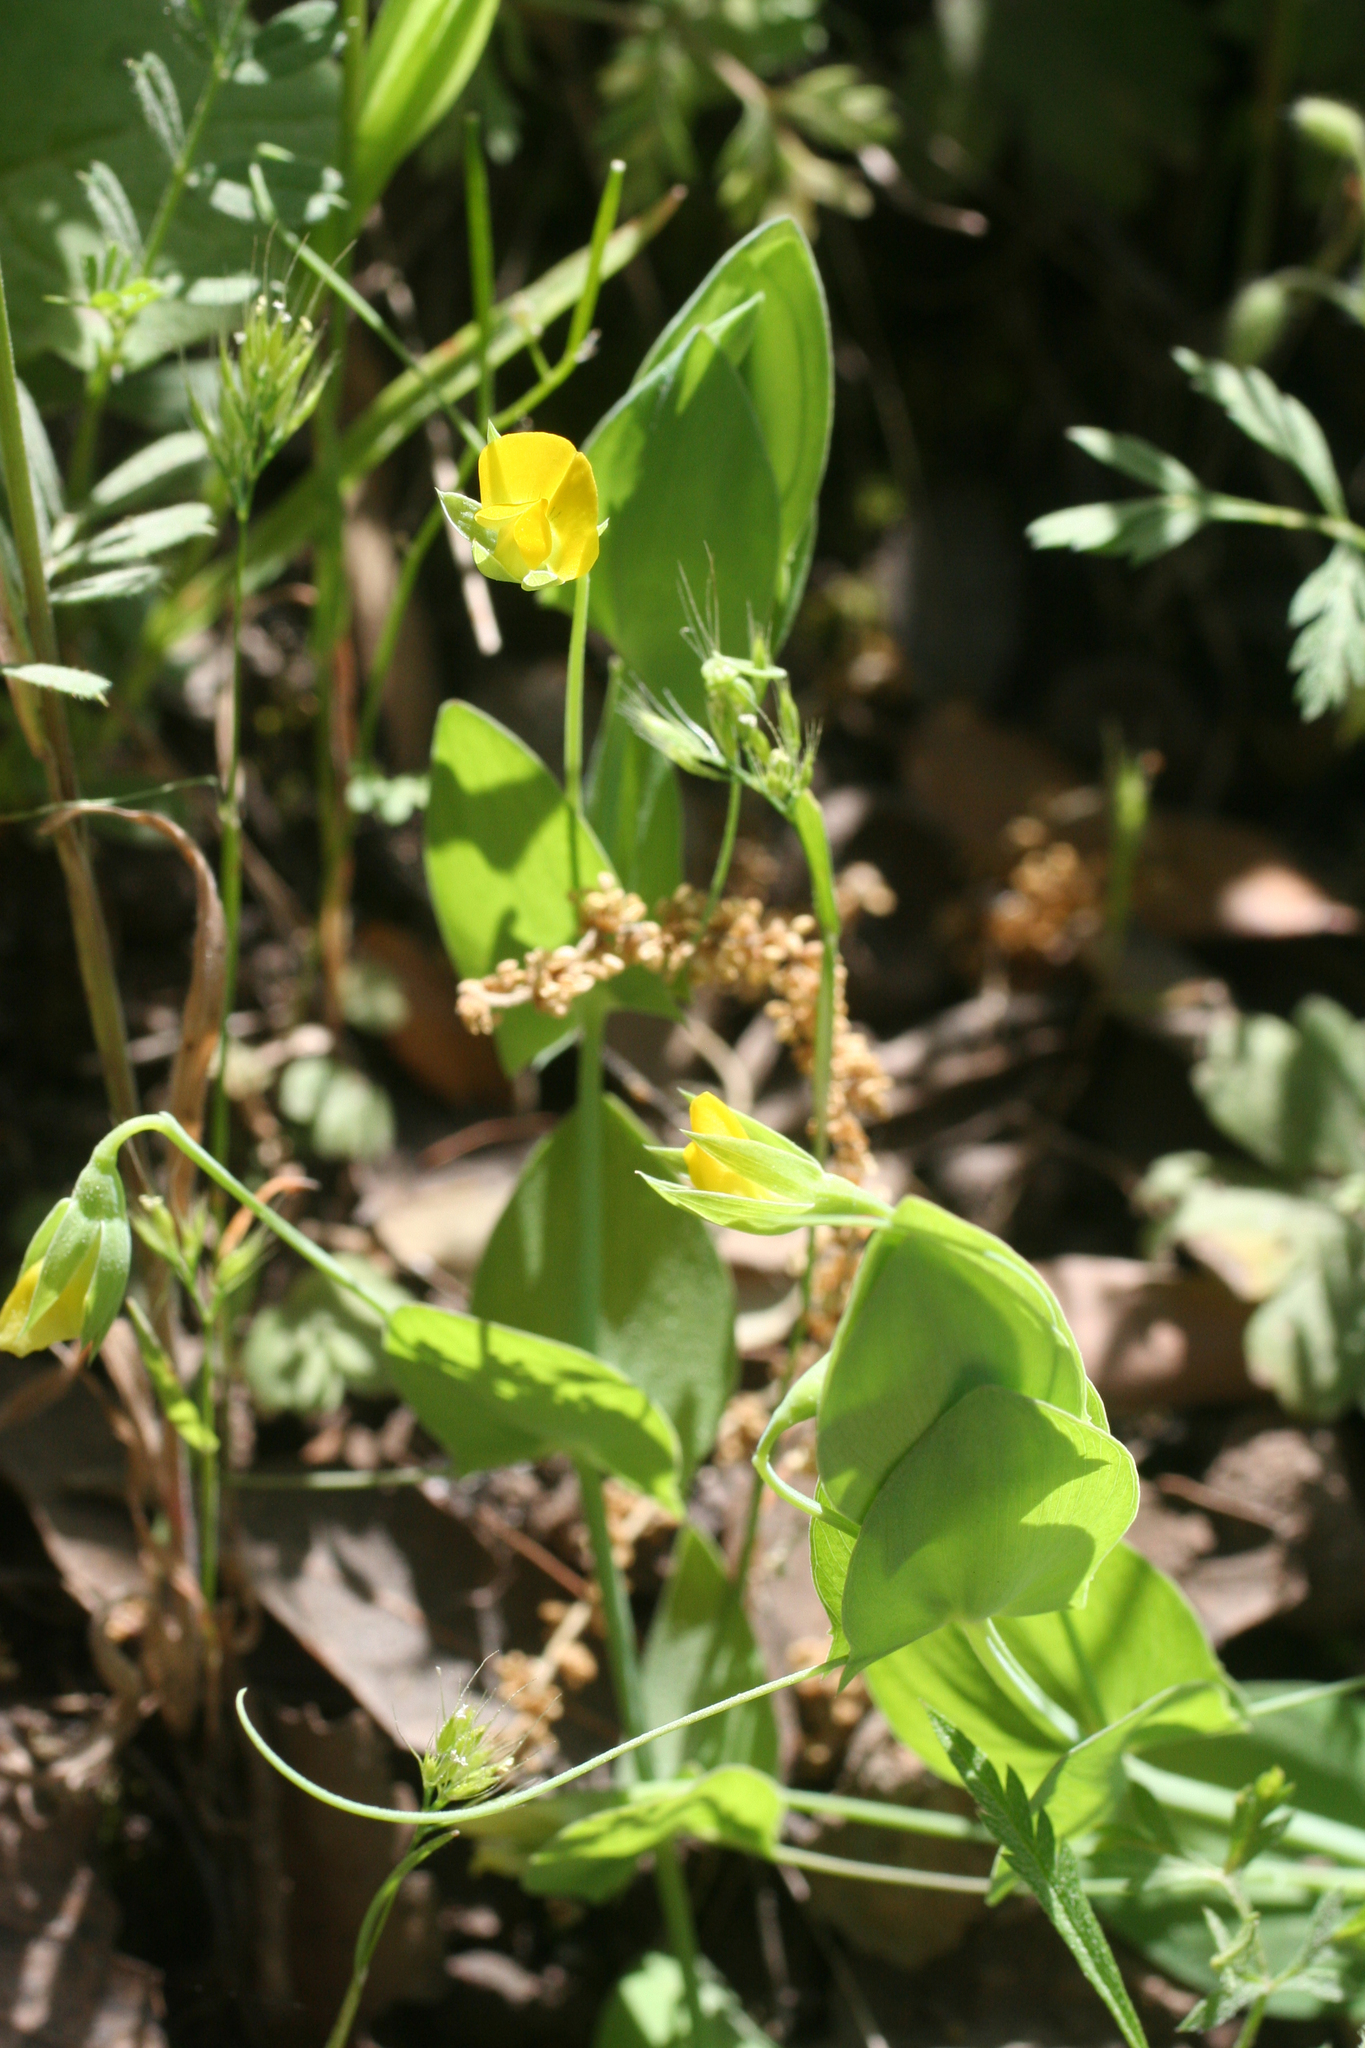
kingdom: Plantae
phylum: Tracheophyta
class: Magnoliopsida
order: Fabales
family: Fabaceae
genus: Lathyrus
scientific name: Lathyrus aphaca
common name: Yellow vetchling
